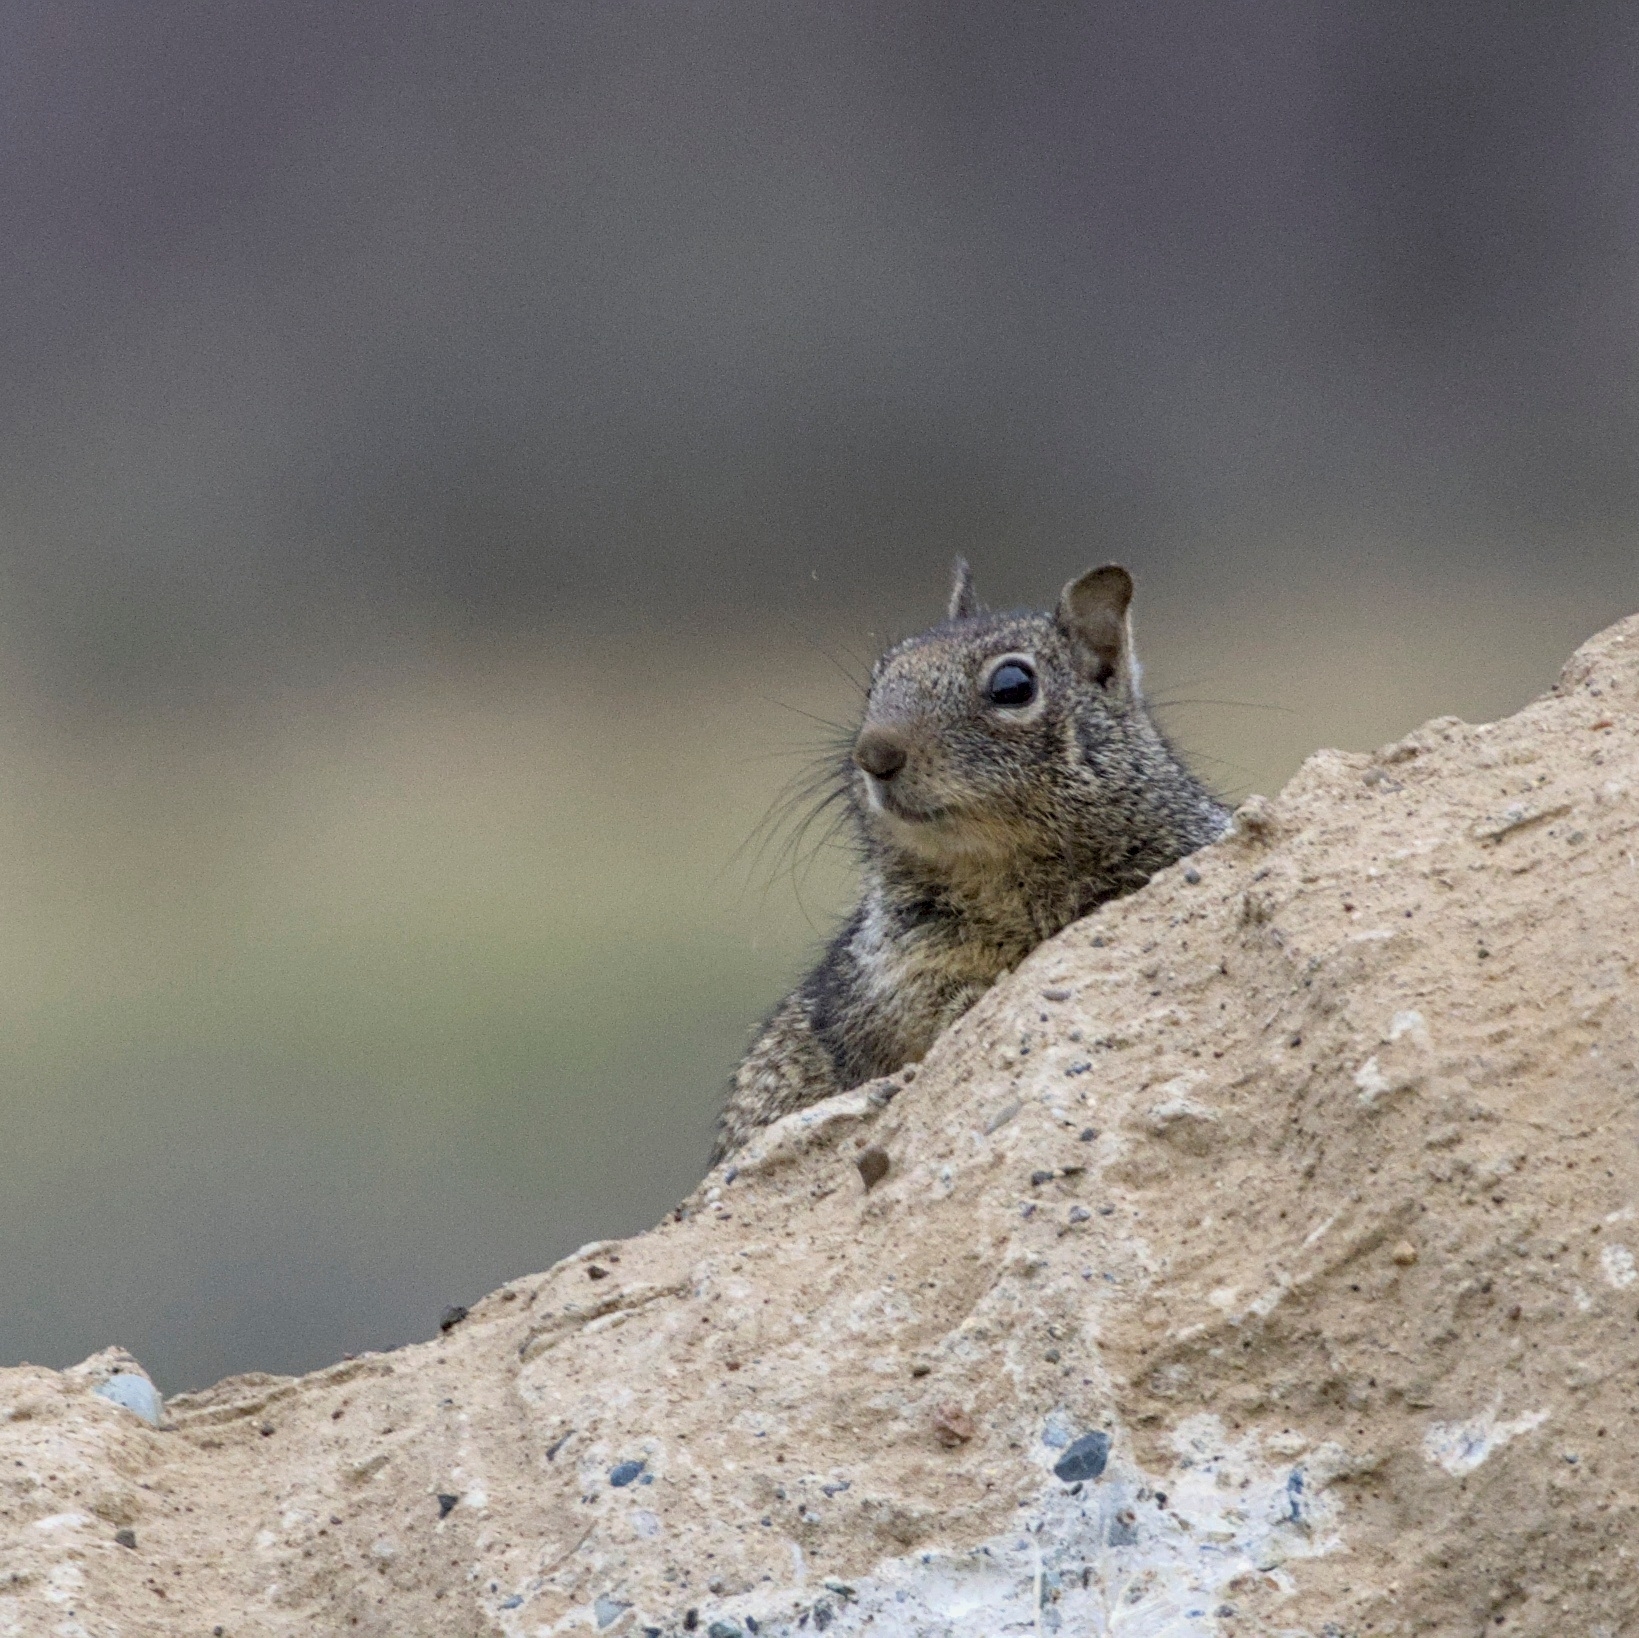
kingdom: Animalia
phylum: Chordata
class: Mammalia
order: Rodentia
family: Sciuridae
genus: Otospermophilus
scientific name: Otospermophilus beecheyi
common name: California ground squirrel
